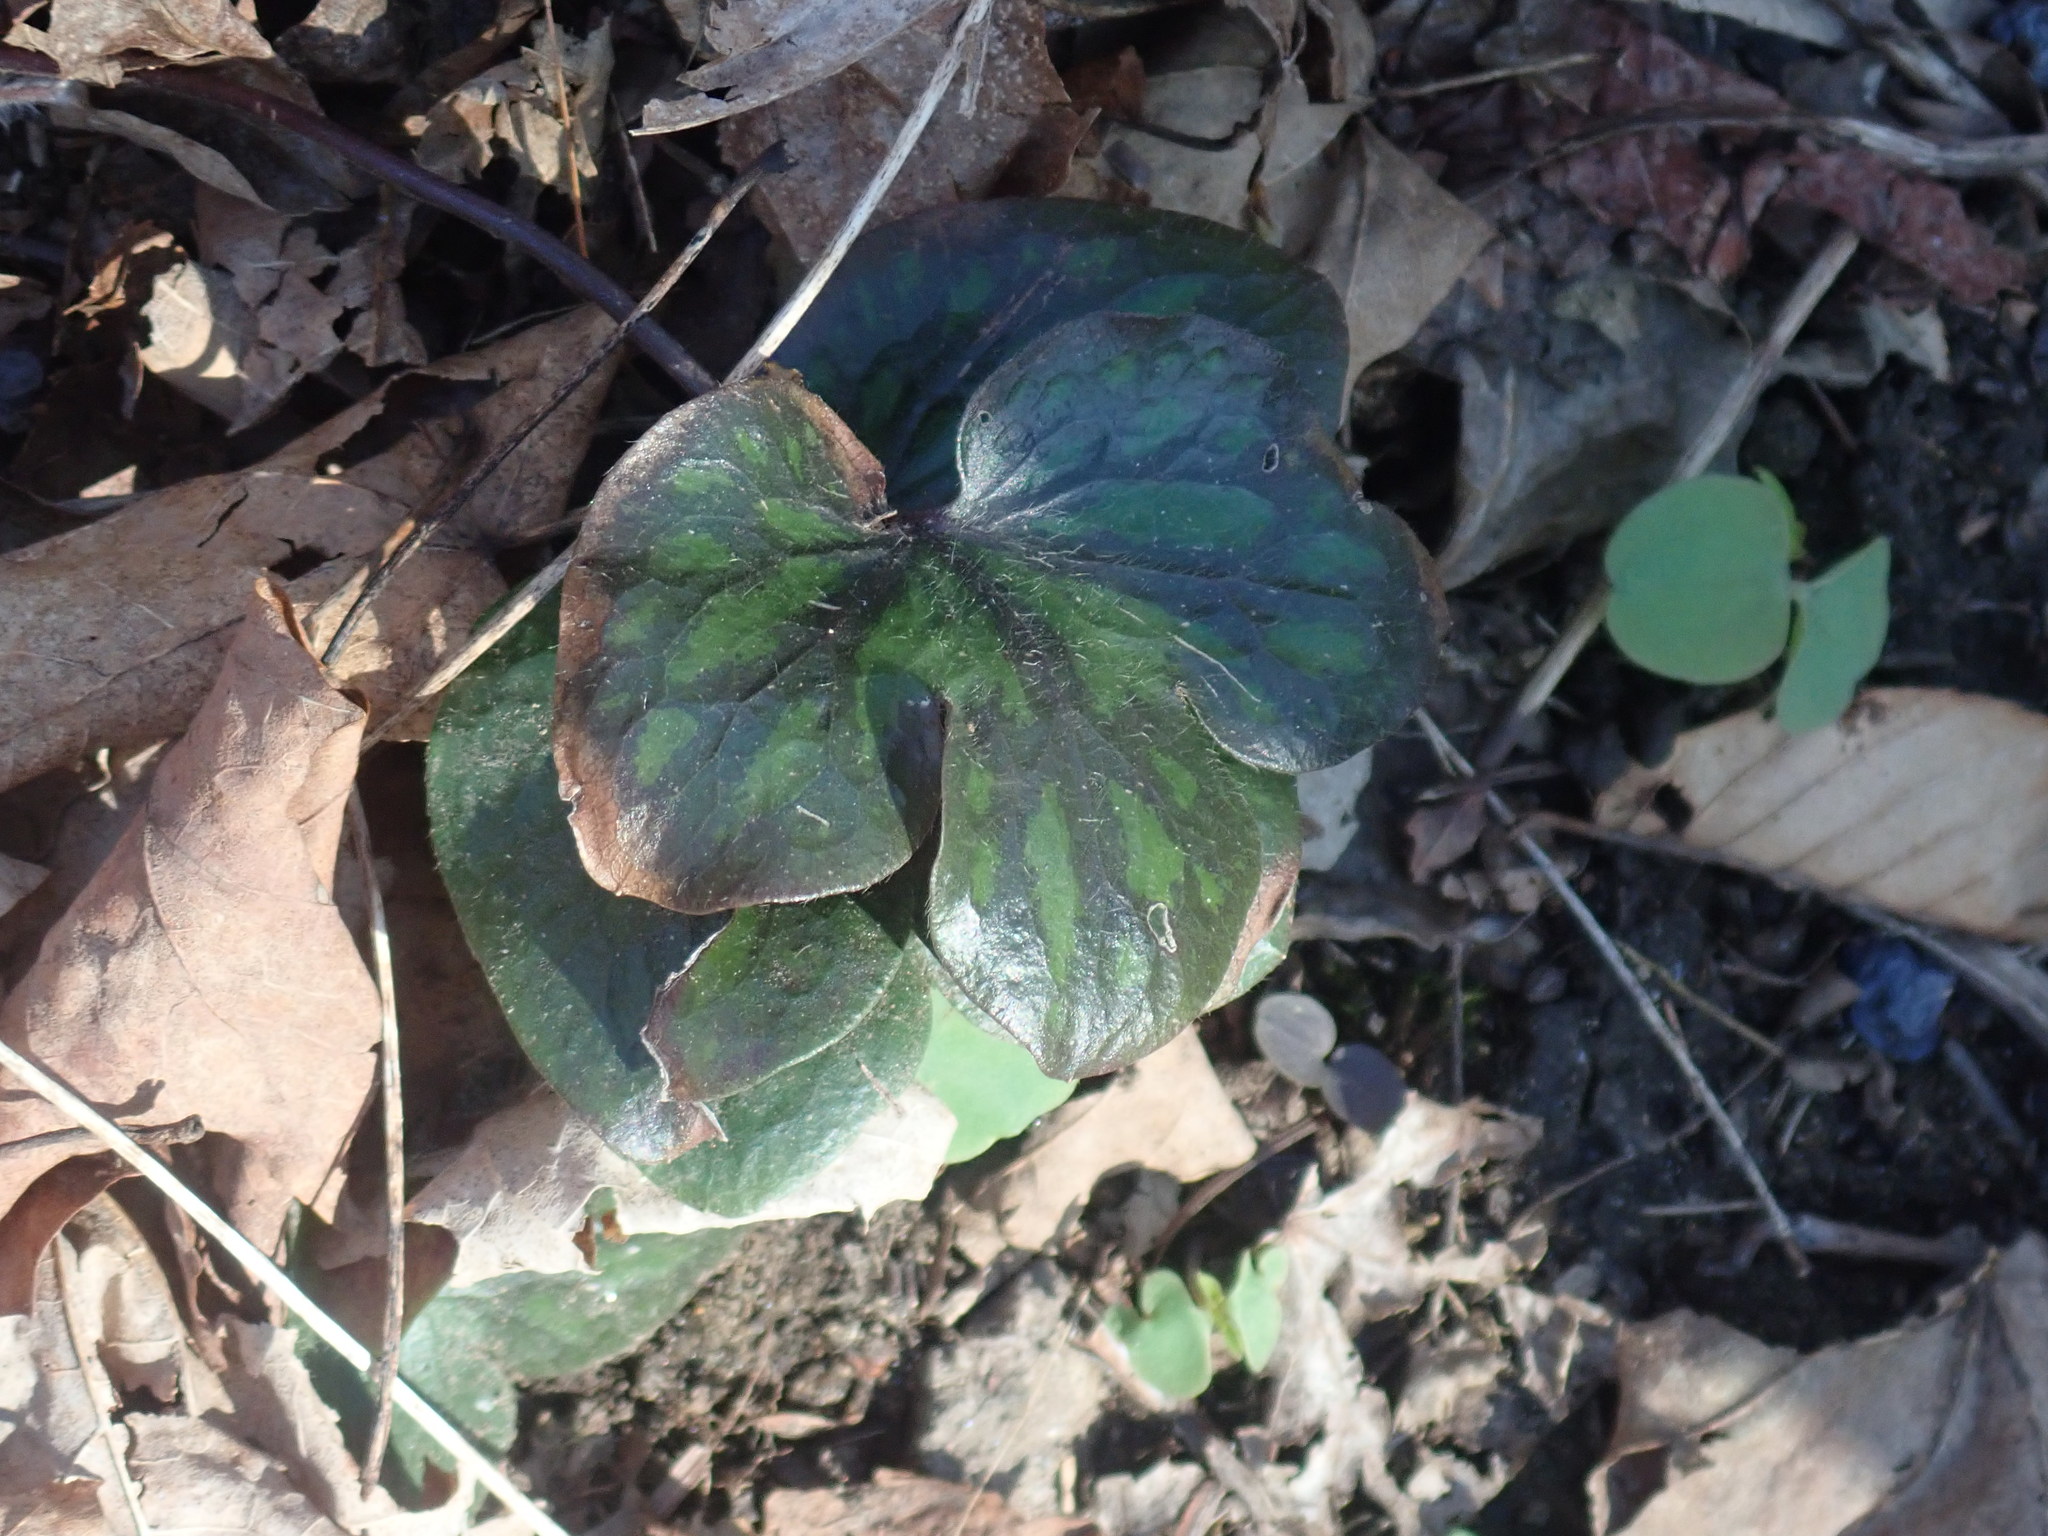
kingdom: Plantae
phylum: Tracheophyta
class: Magnoliopsida
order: Ranunculales
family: Ranunculaceae
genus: Hepatica
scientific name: Hepatica americana
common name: American hepatica
